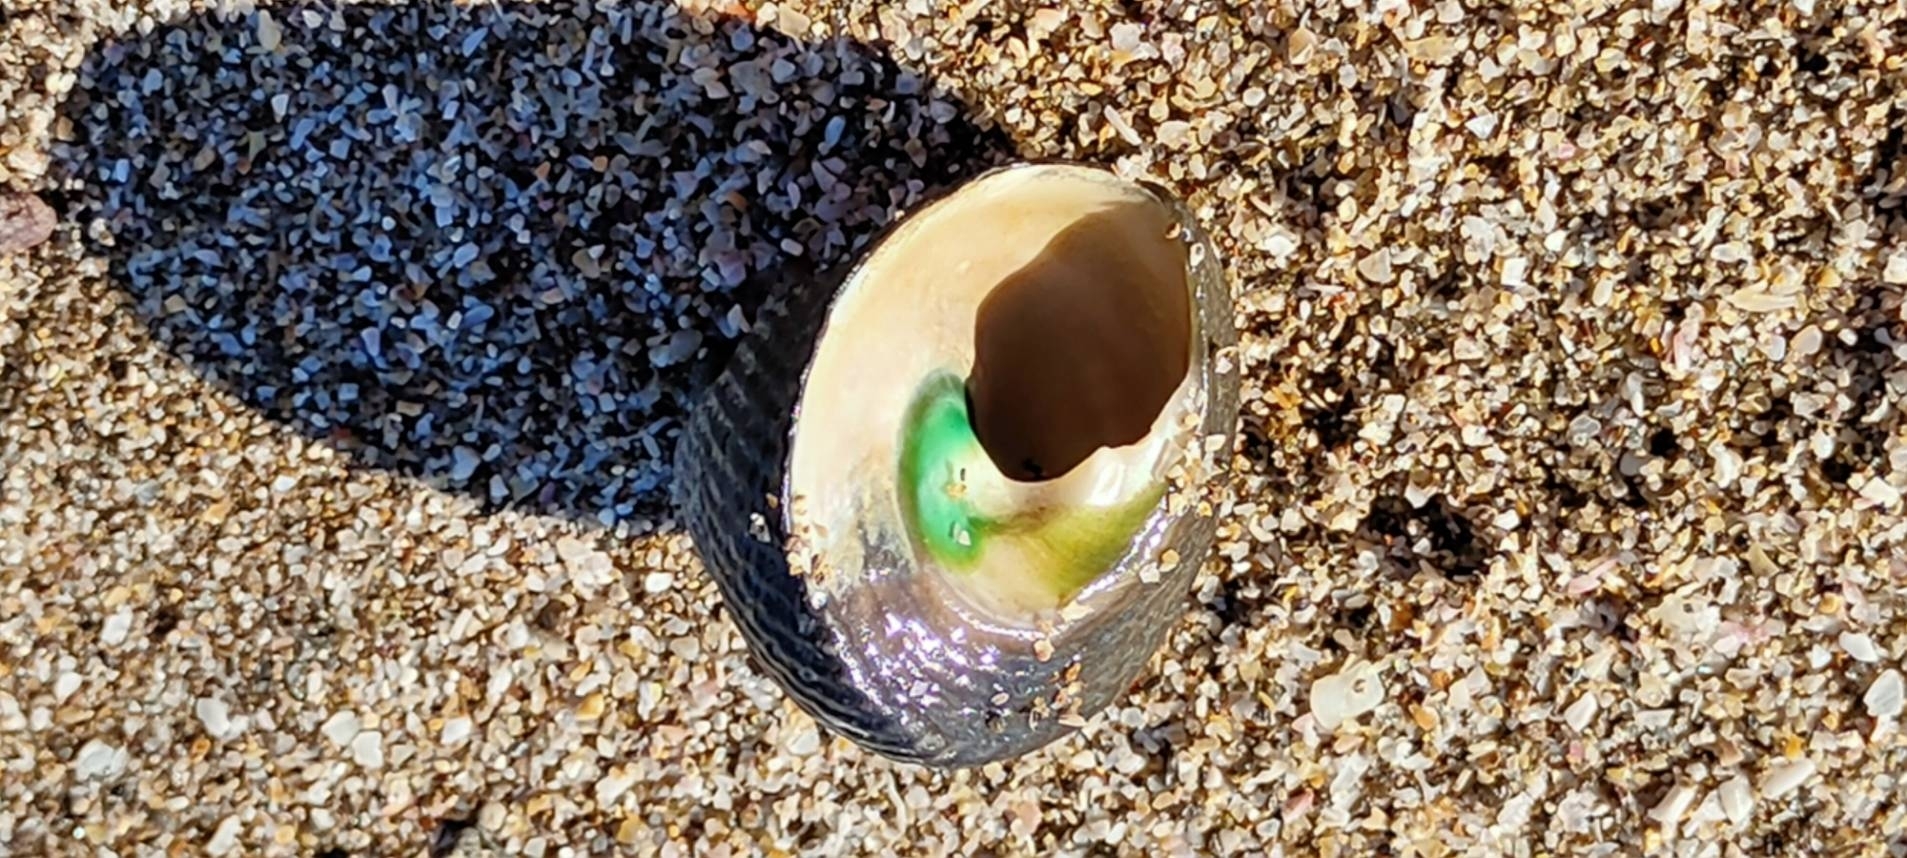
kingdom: Animalia
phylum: Mollusca
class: Gastropoda
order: Trochida
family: Tegulidae
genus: Tegula
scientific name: Tegula argyrostoma
